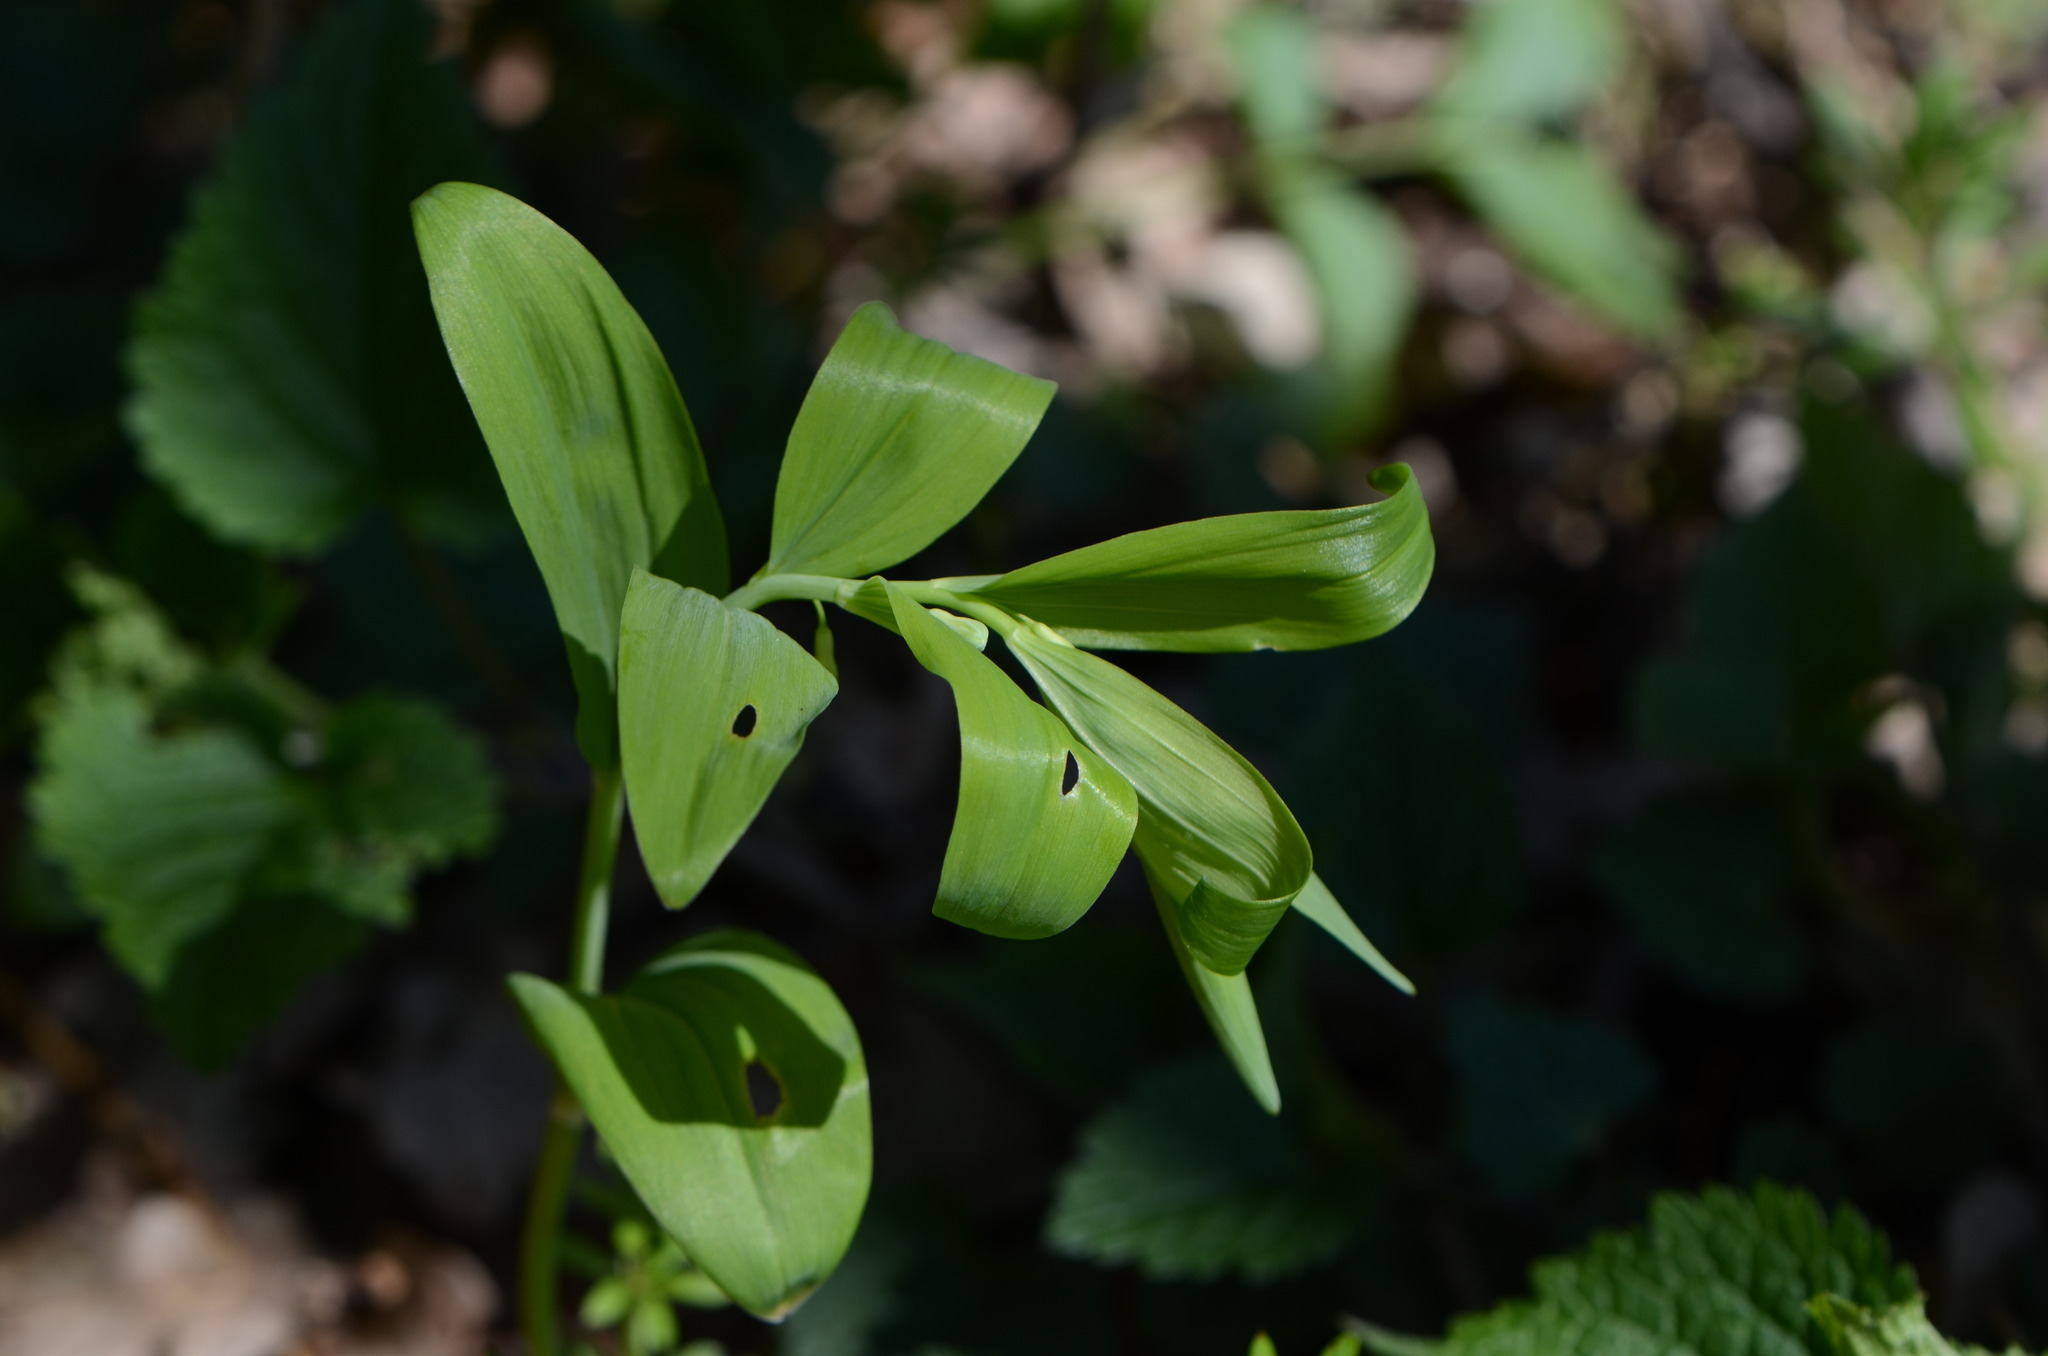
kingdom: Plantae
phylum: Tracheophyta
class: Liliopsida
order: Asparagales
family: Asparagaceae
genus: Polygonatum
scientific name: Polygonatum multiflorum
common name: Solomon's-seal
